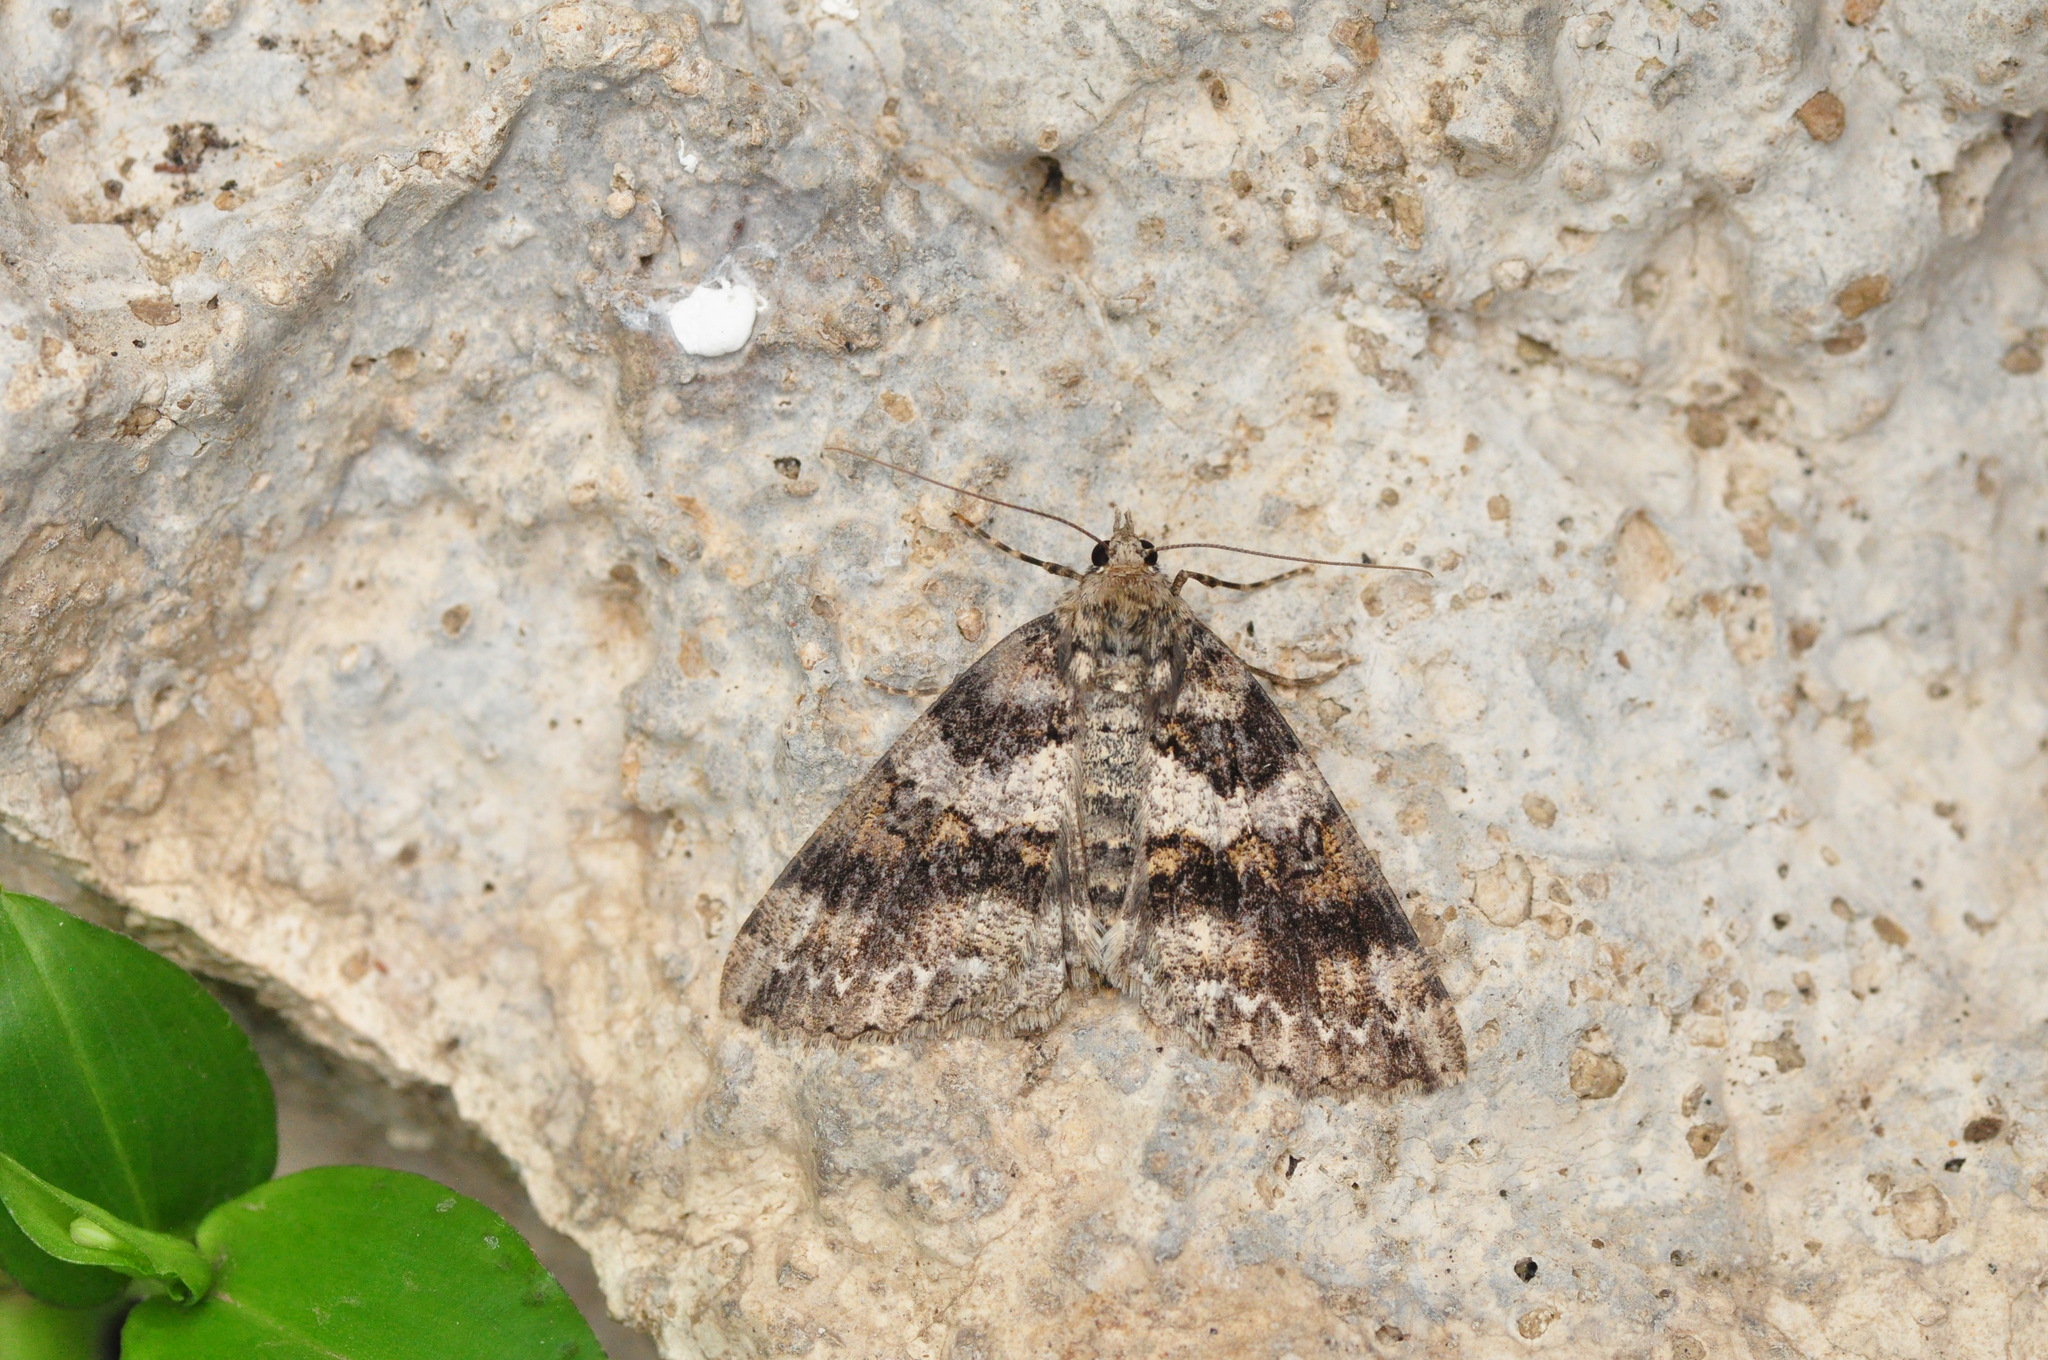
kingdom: Animalia
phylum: Arthropoda
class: Insecta
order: Lepidoptera
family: Geometridae
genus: Ascotis
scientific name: Ascotis fortunata
